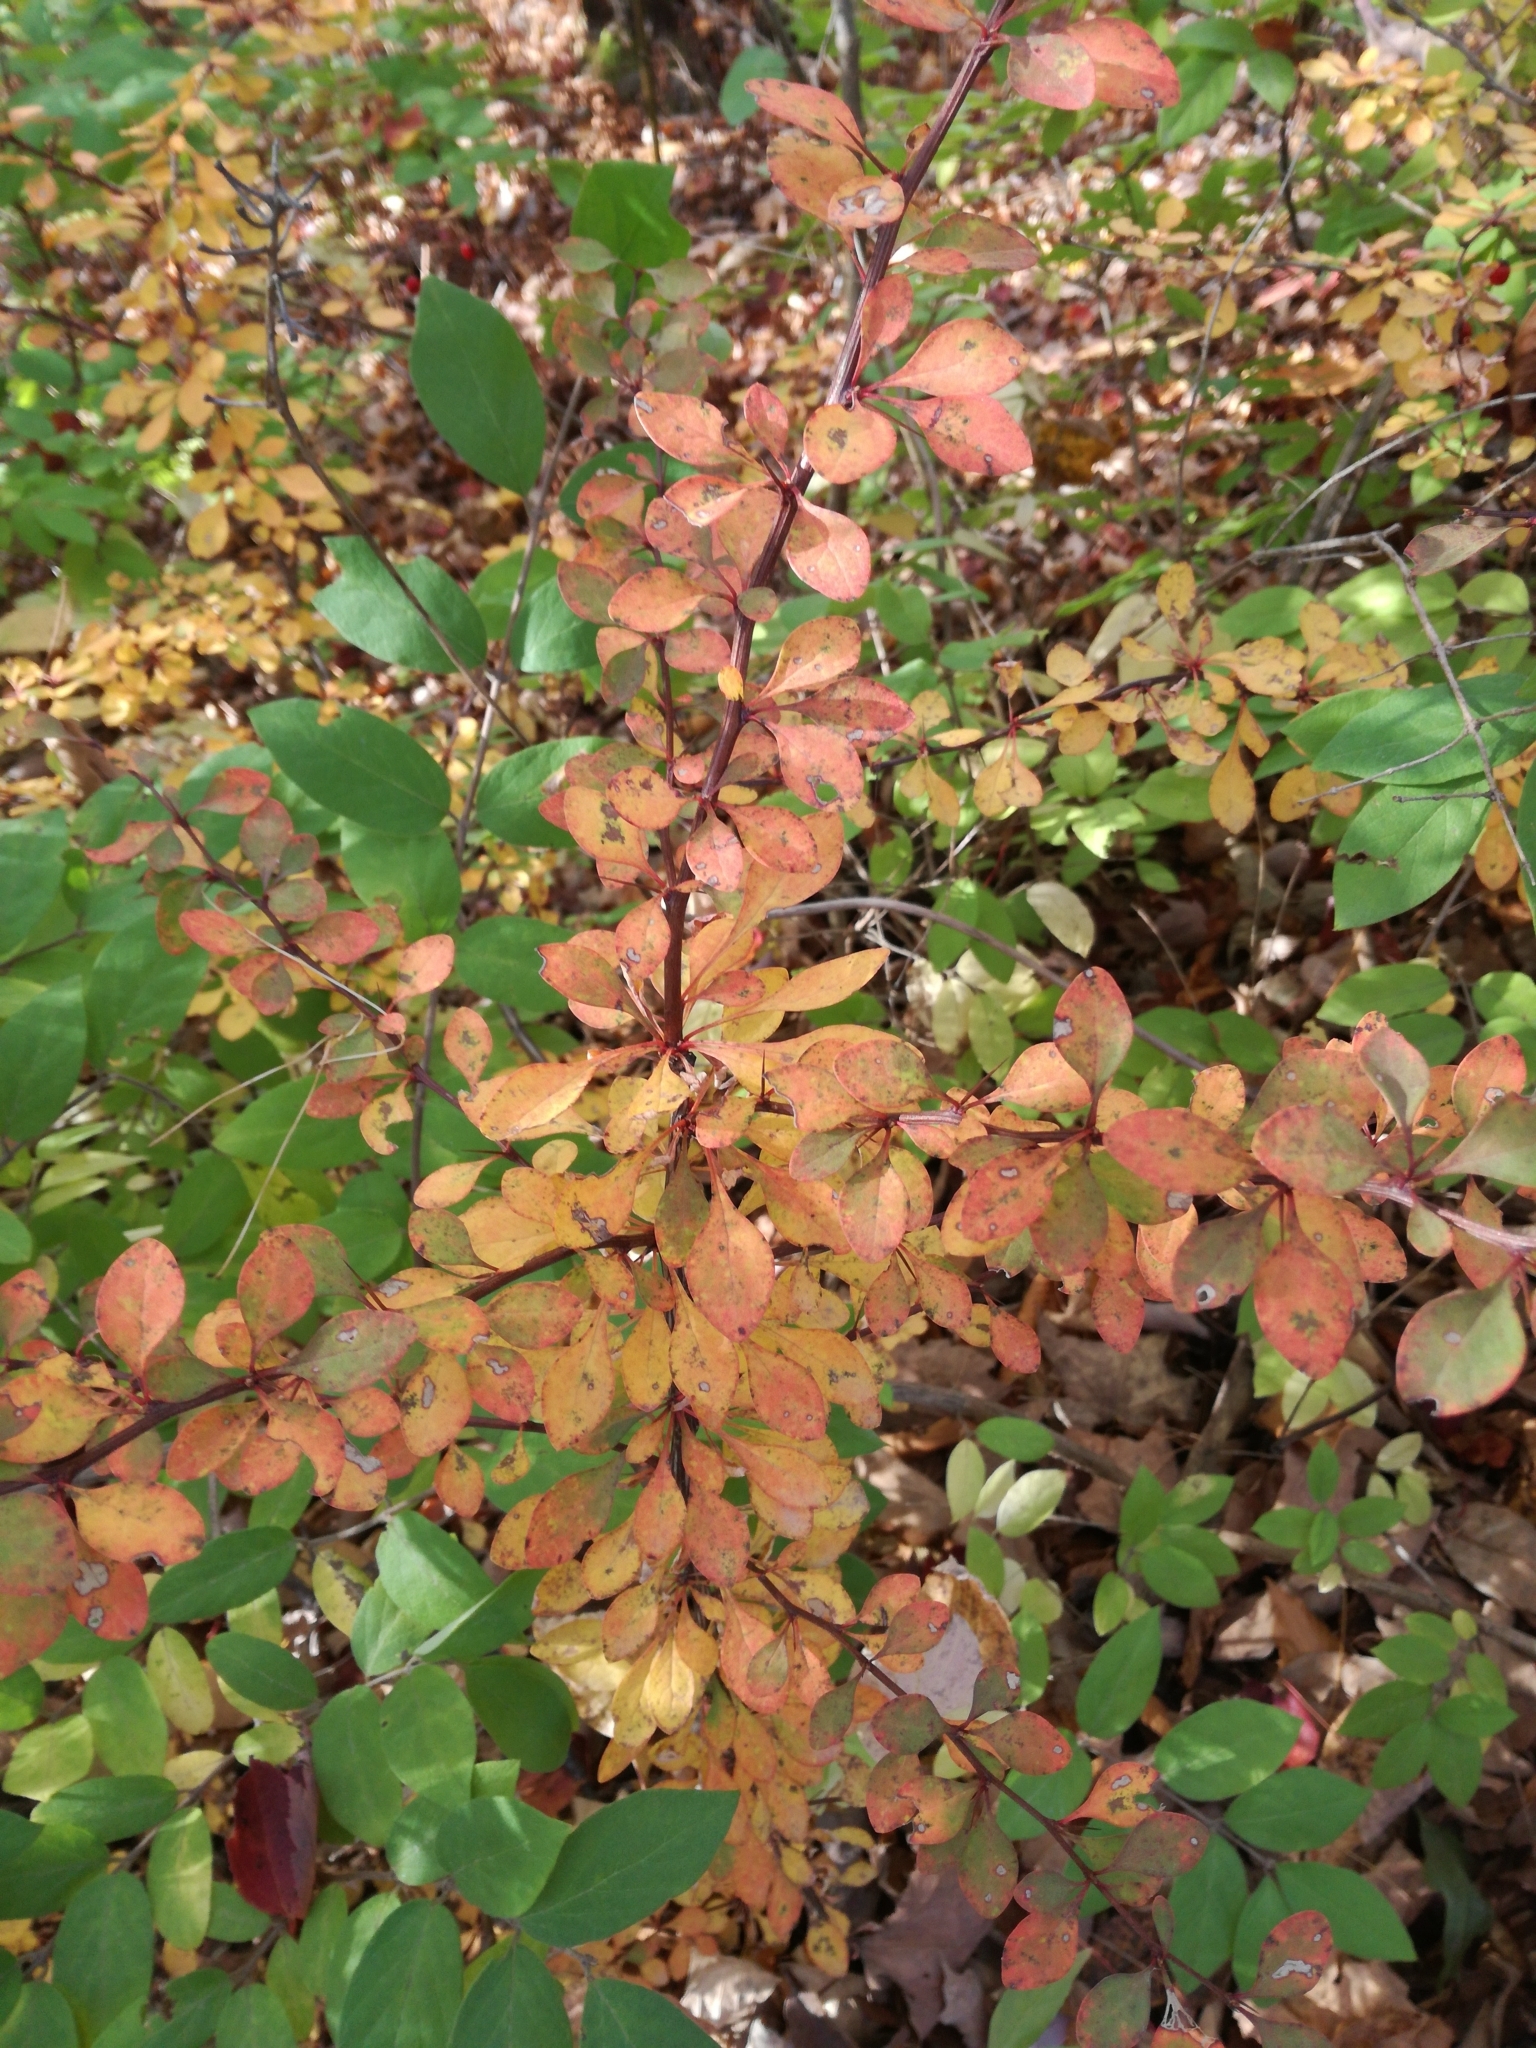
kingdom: Plantae
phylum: Tracheophyta
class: Magnoliopsida
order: Ranunculales
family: Berberidaceae
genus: Berberis
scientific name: Berberis thunbergii
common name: Japanese barberry
